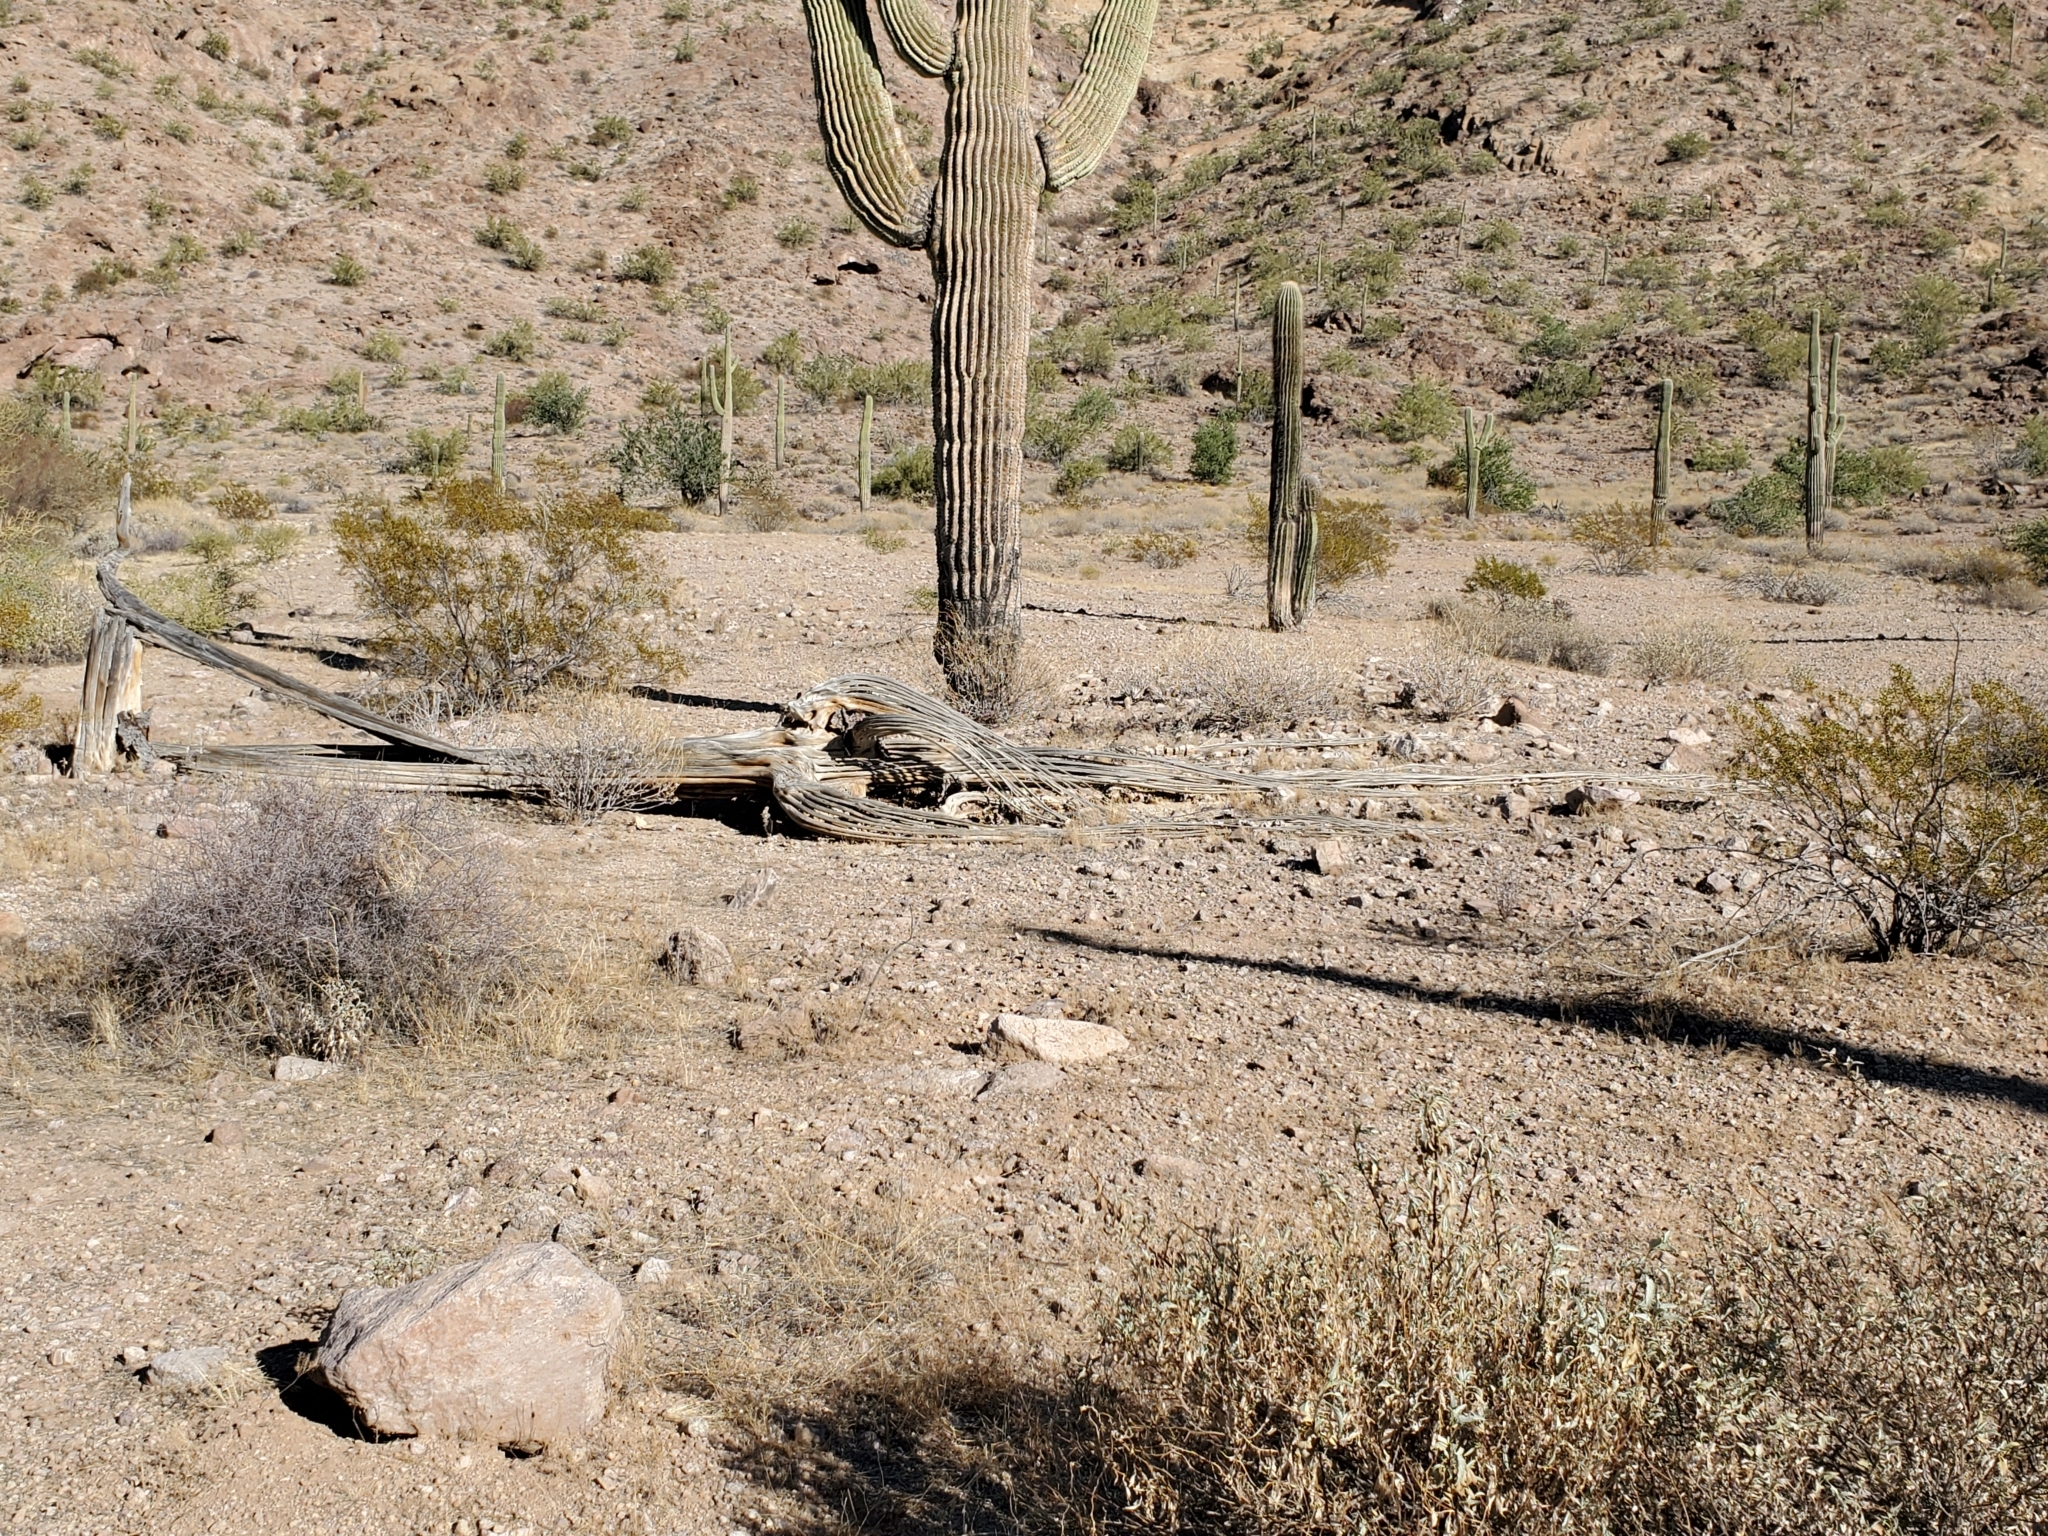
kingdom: Plantae
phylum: Tracheophyta
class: Magnoliopsida
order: Caryophyllales
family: Cactaceae
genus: Carnegiea
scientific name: Carnegiea gigantea
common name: Saguaro
